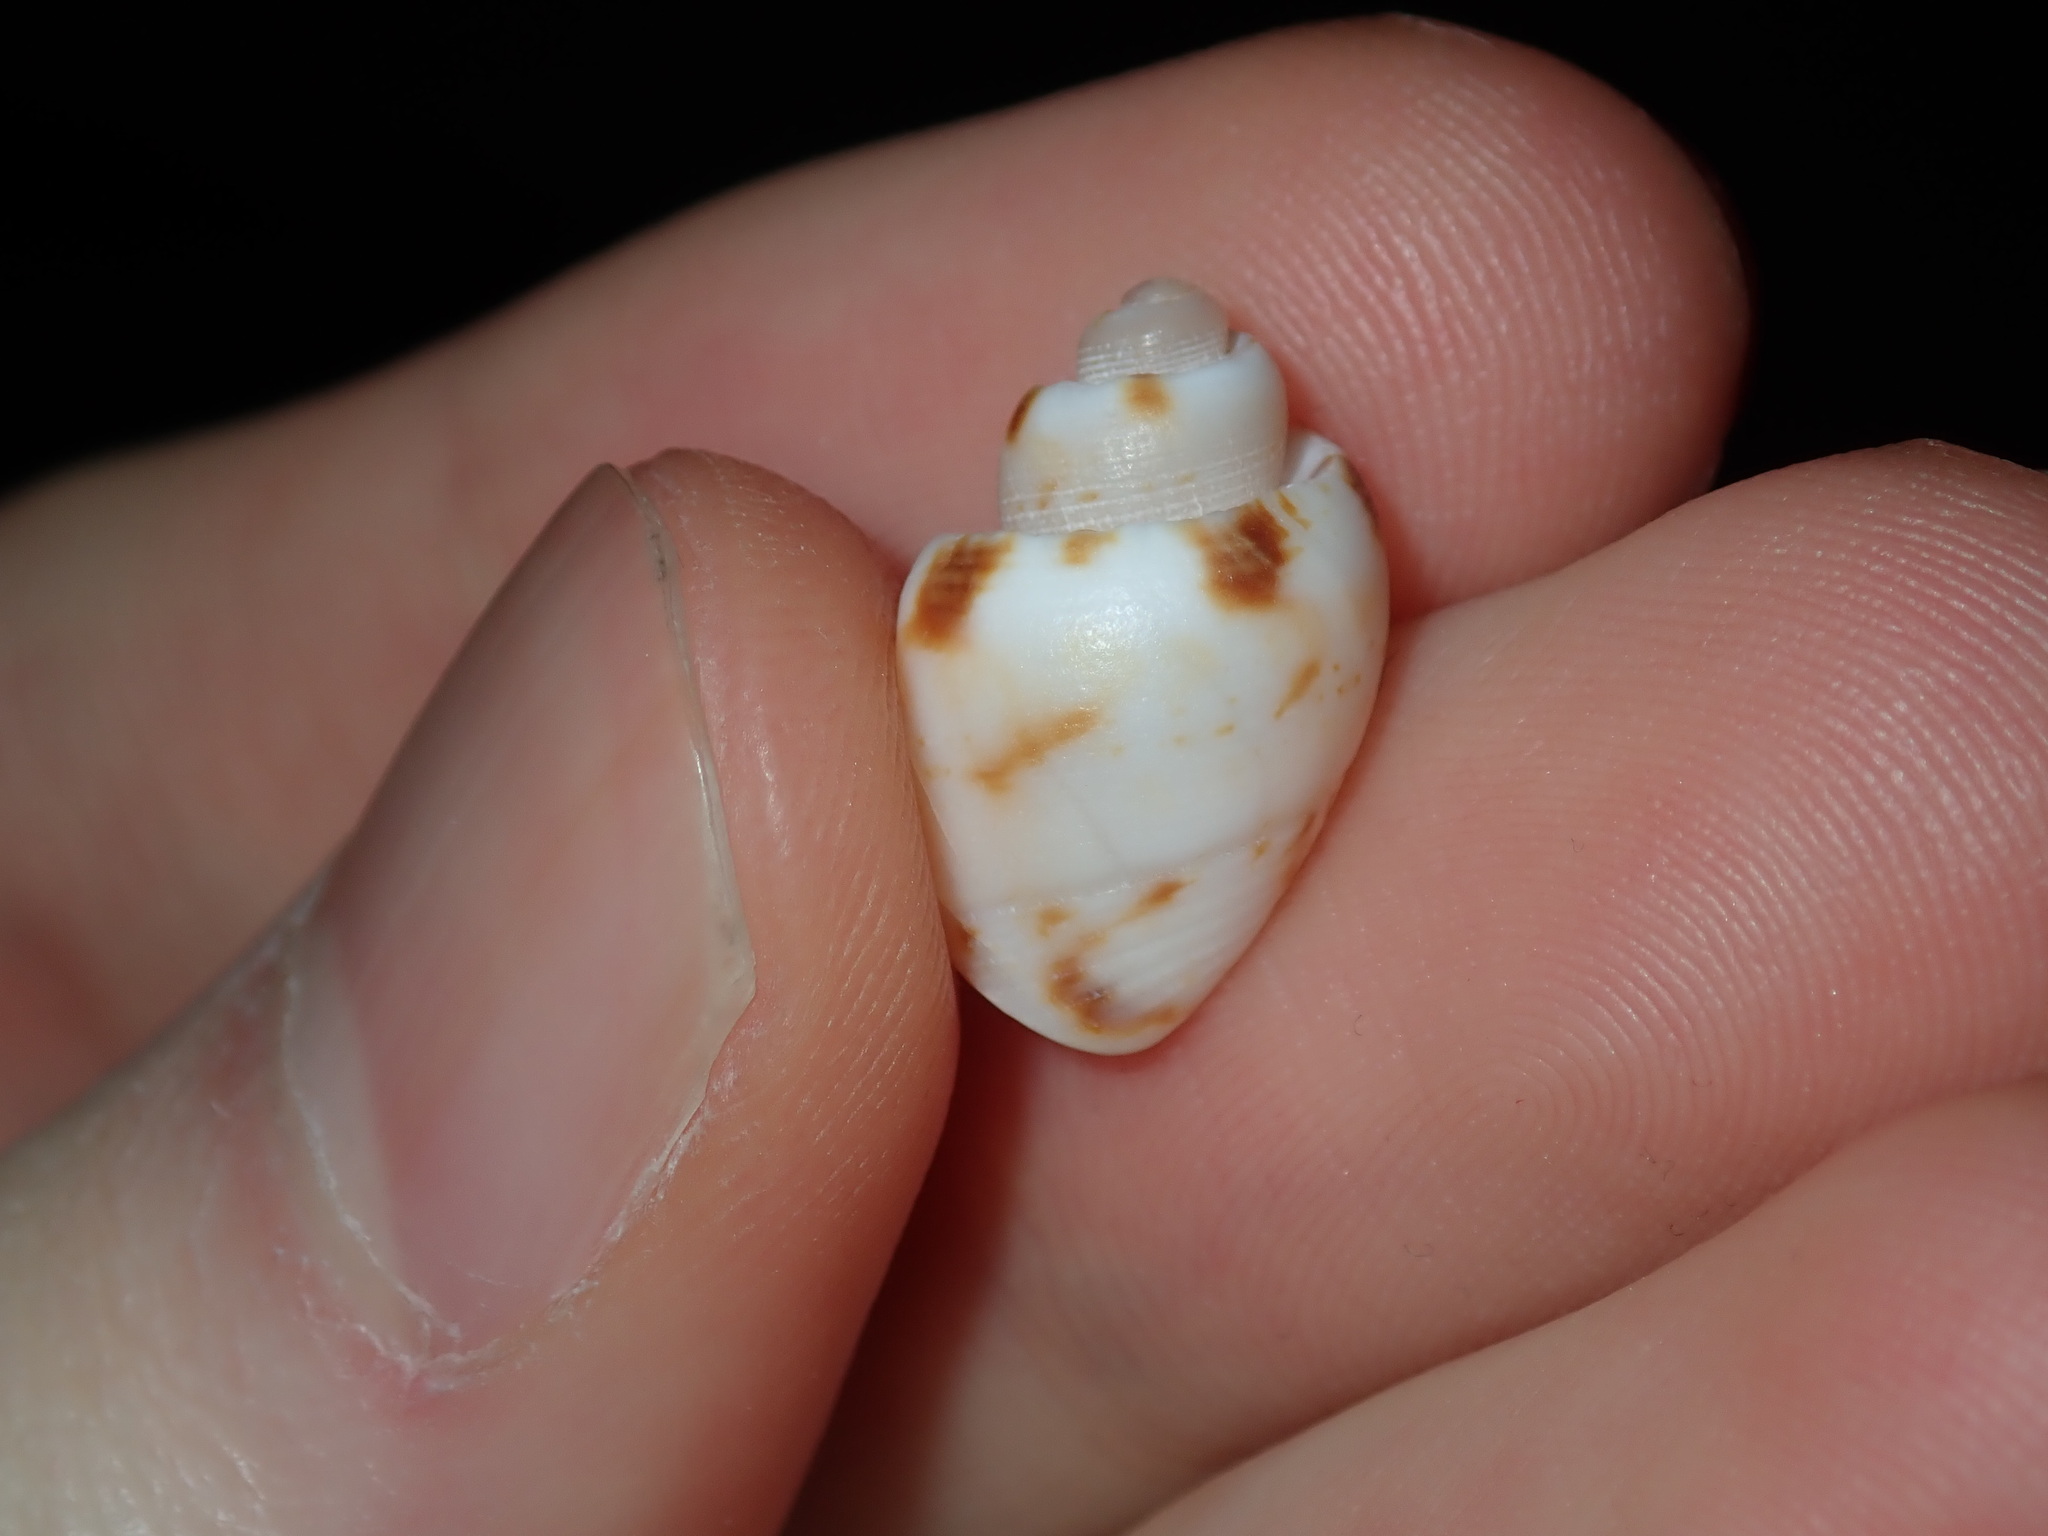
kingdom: Animalia
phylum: Mollusca
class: Gastropoda
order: Neogastropoda
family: Pseudolividae
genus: Zemira
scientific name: Zemira australis
